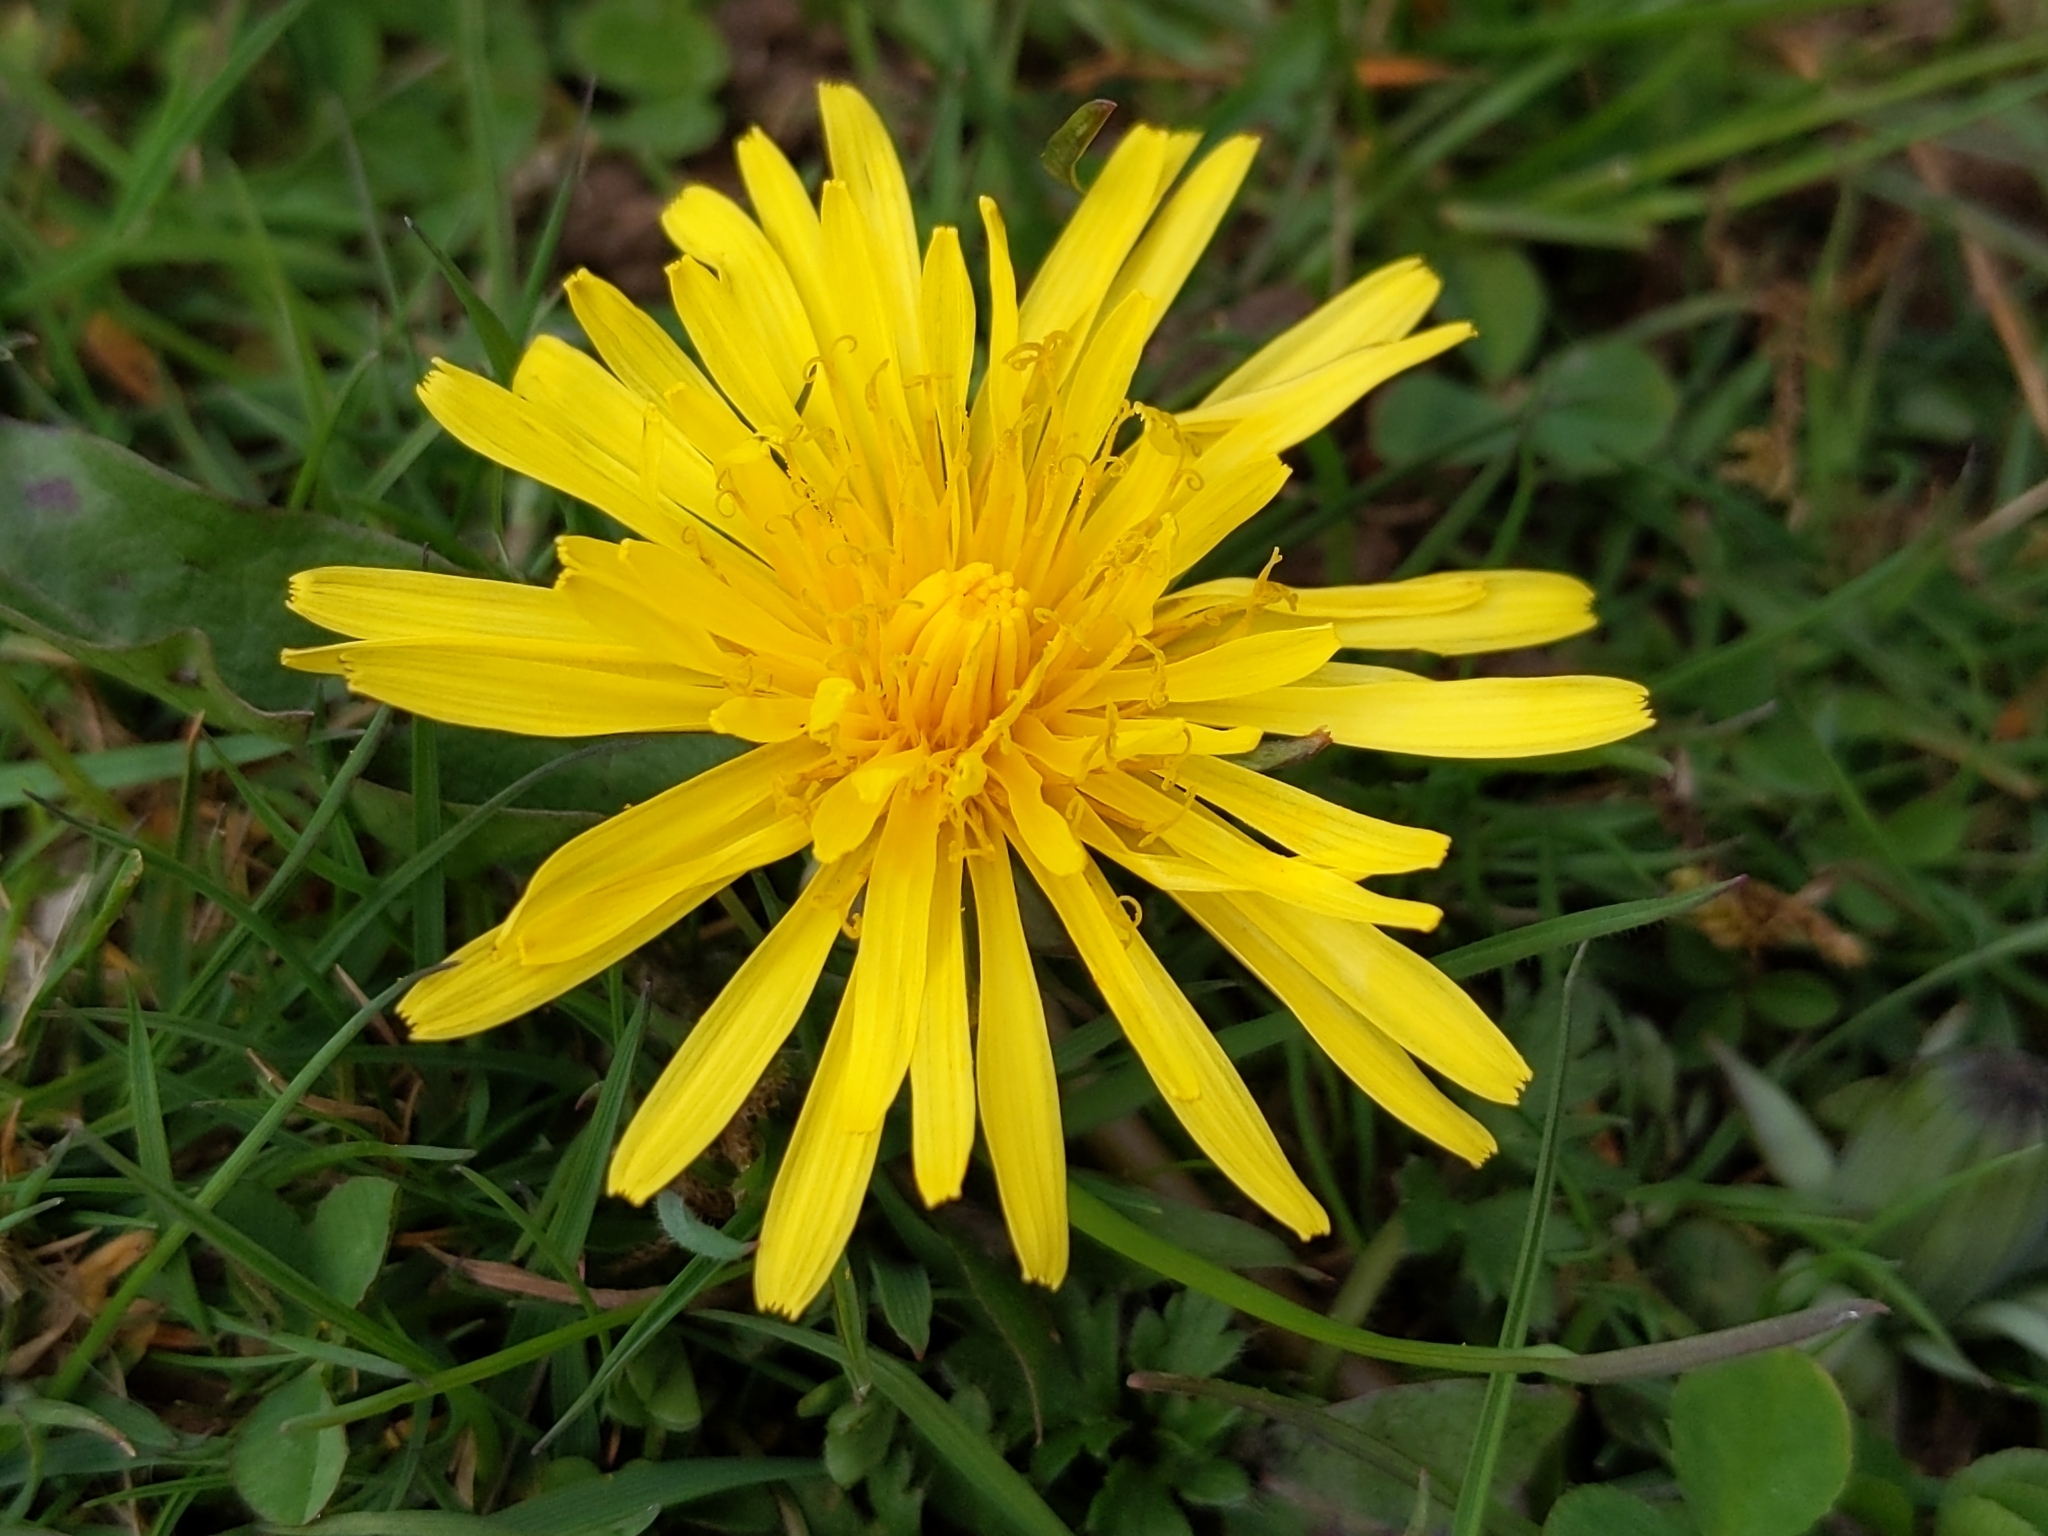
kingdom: Plantae
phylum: Tracheophyta
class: Magnoliopsida
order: Asterales
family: Asteraceae
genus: Taraxacum
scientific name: Taraxacum officinale
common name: Common dandelion
